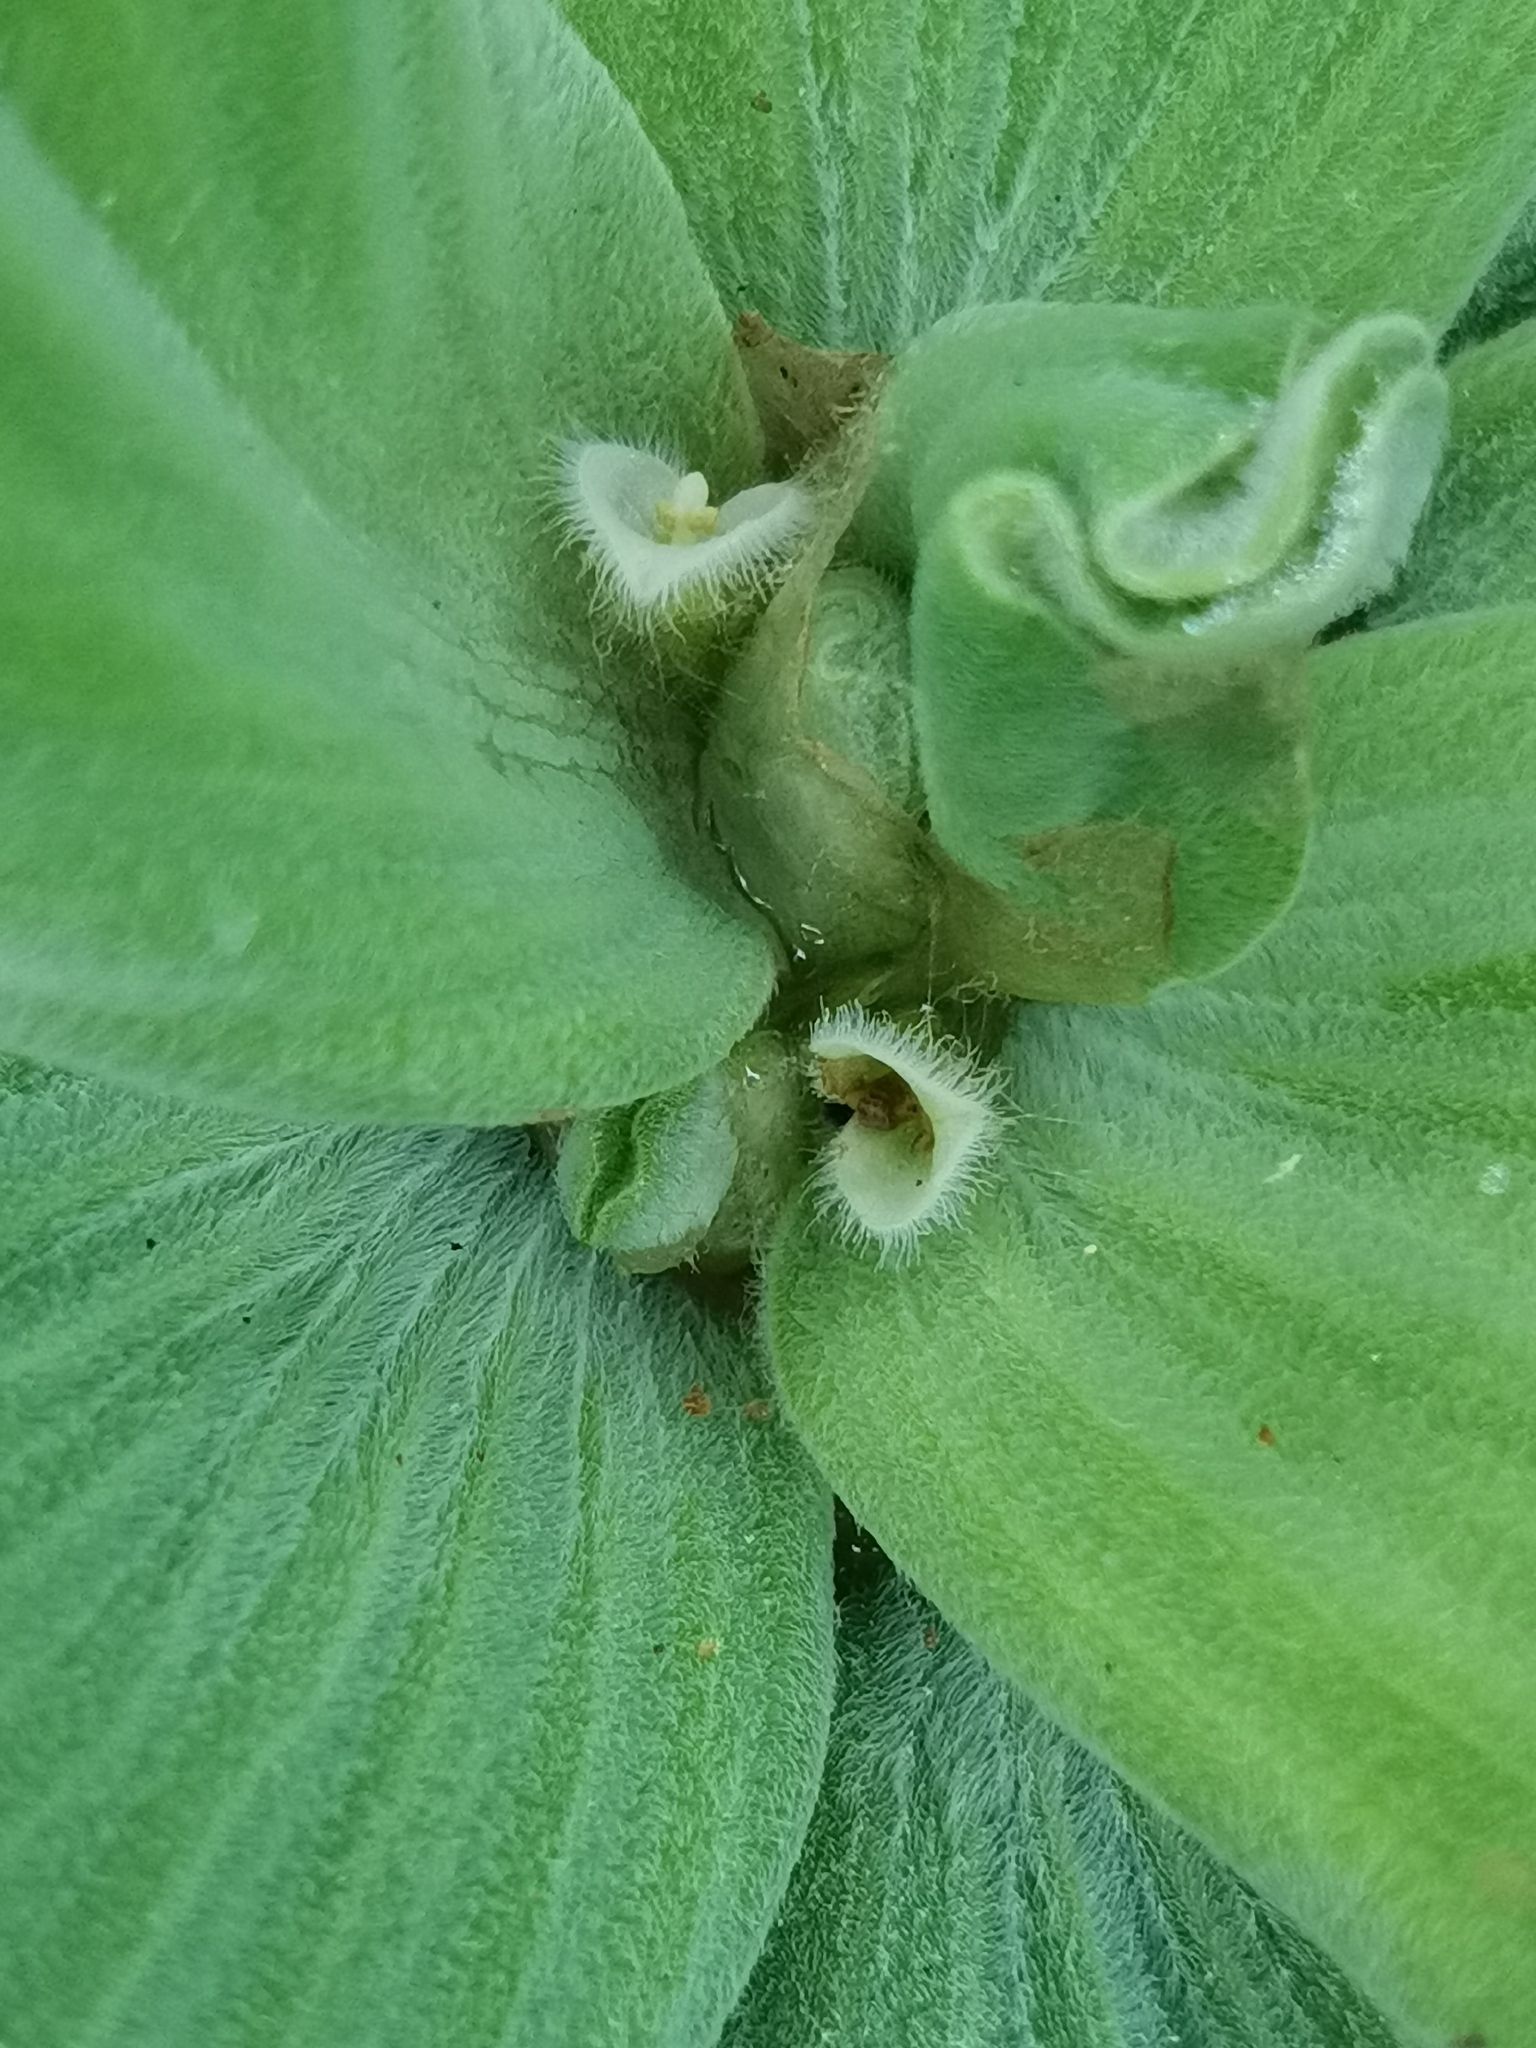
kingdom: Plantae
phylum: Tracheophyta
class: Liliopsida
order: Alismatales
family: Araceae
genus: Pistia
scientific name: Pistia stratiotes
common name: Water lettuce
